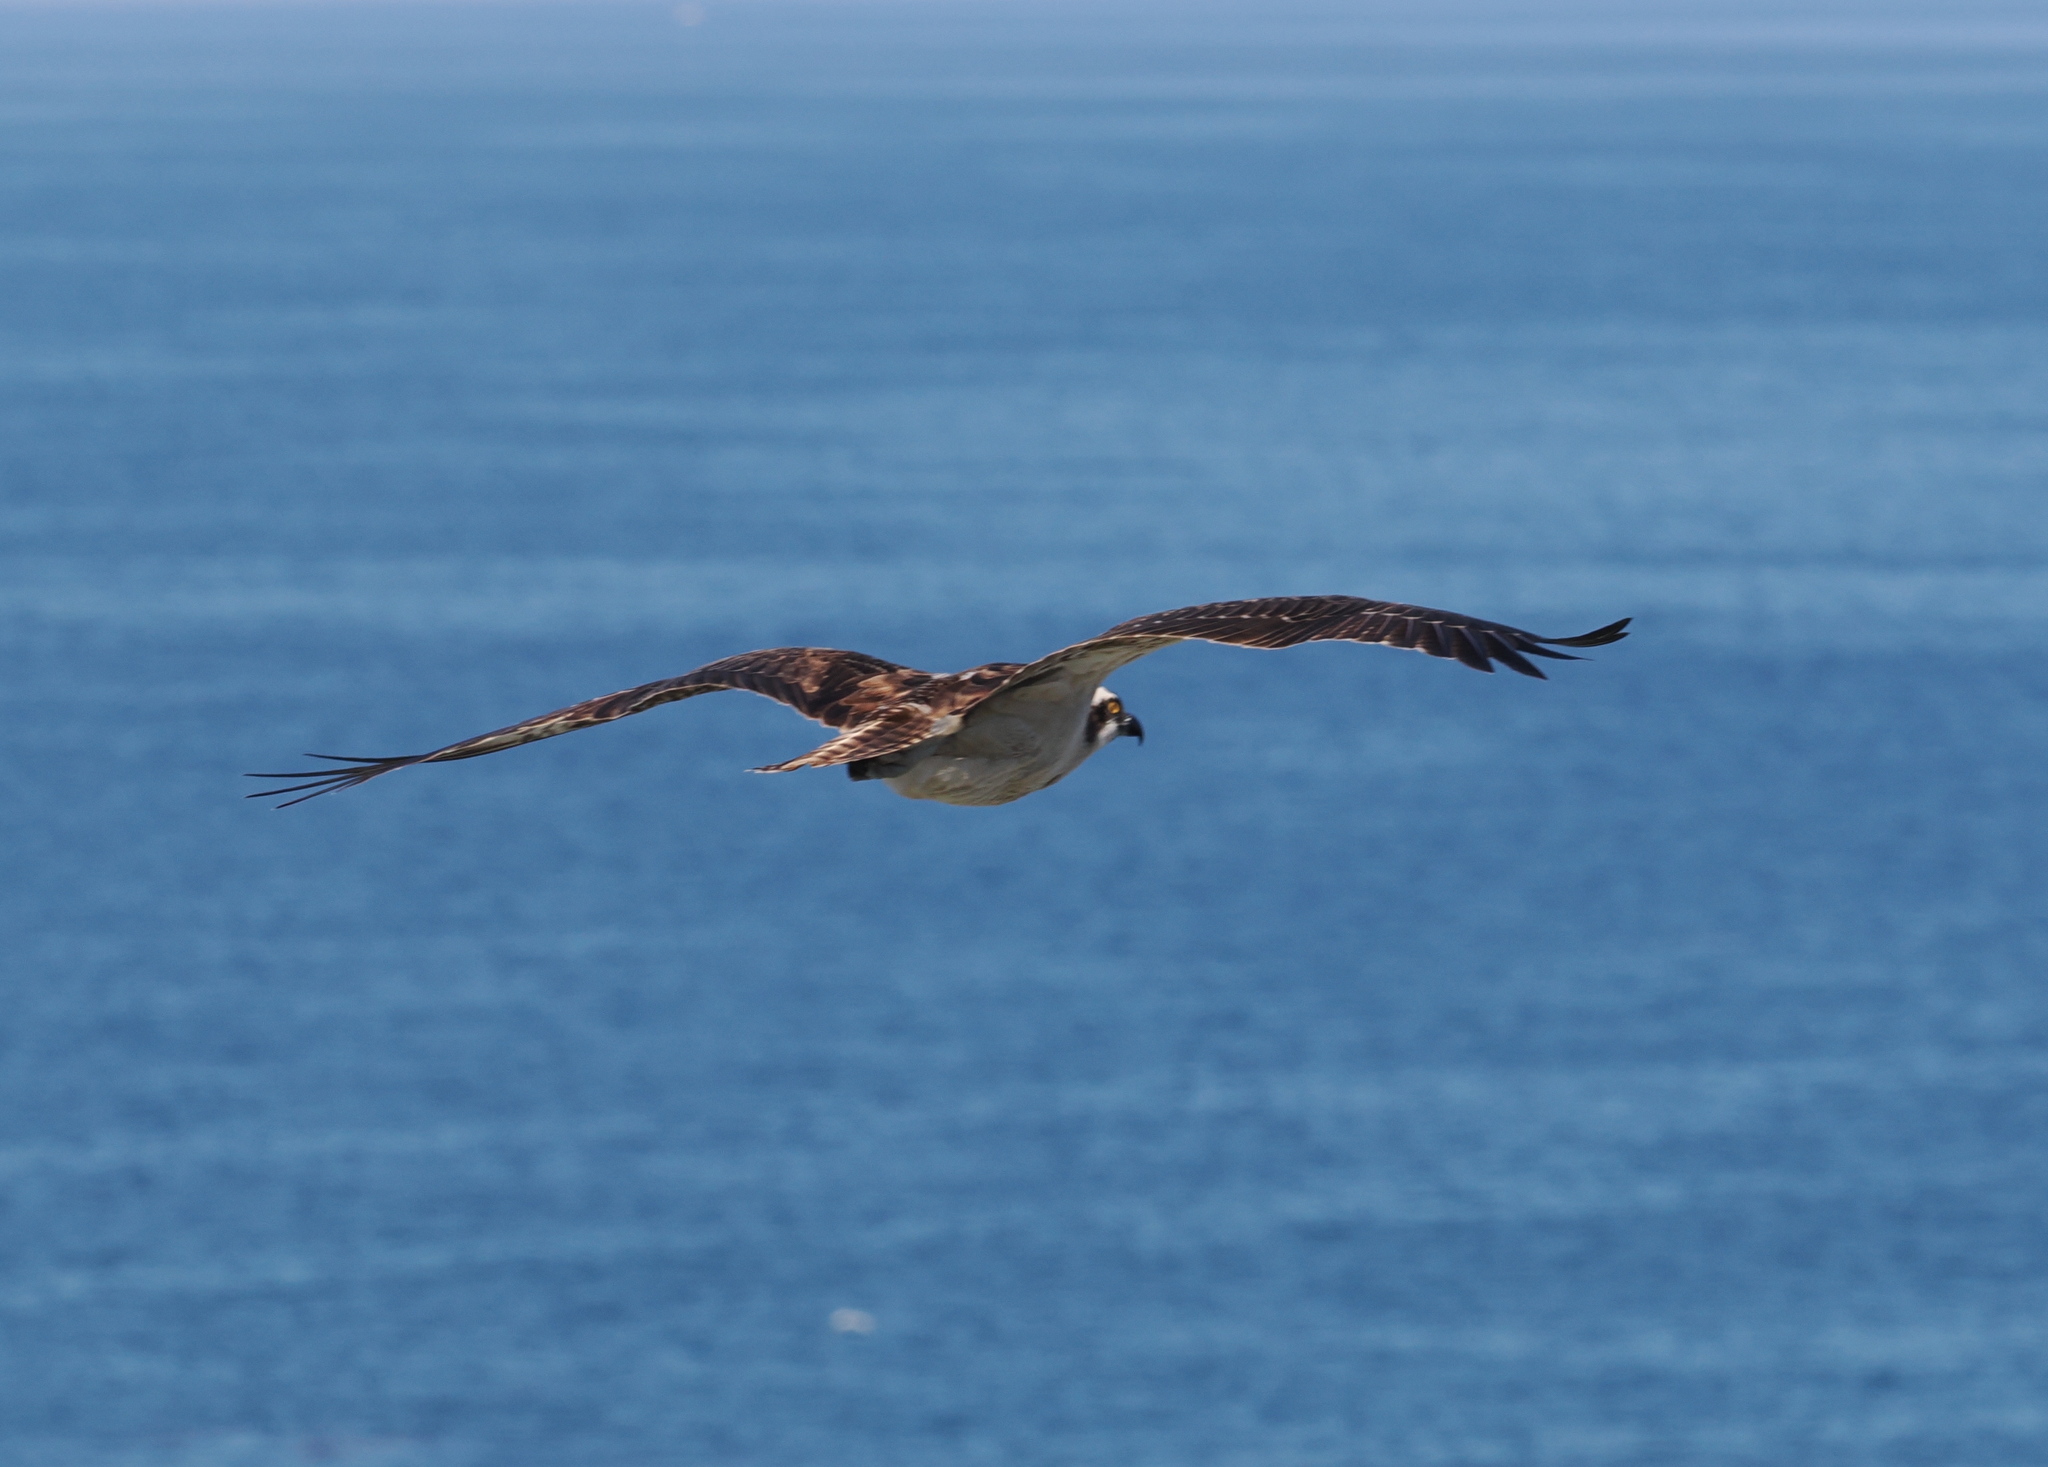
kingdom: Animalia
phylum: Chordata
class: Aves
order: Accipitriformes
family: Pandionidae
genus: Pandion
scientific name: Pandion haliaetus
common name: Osprey
